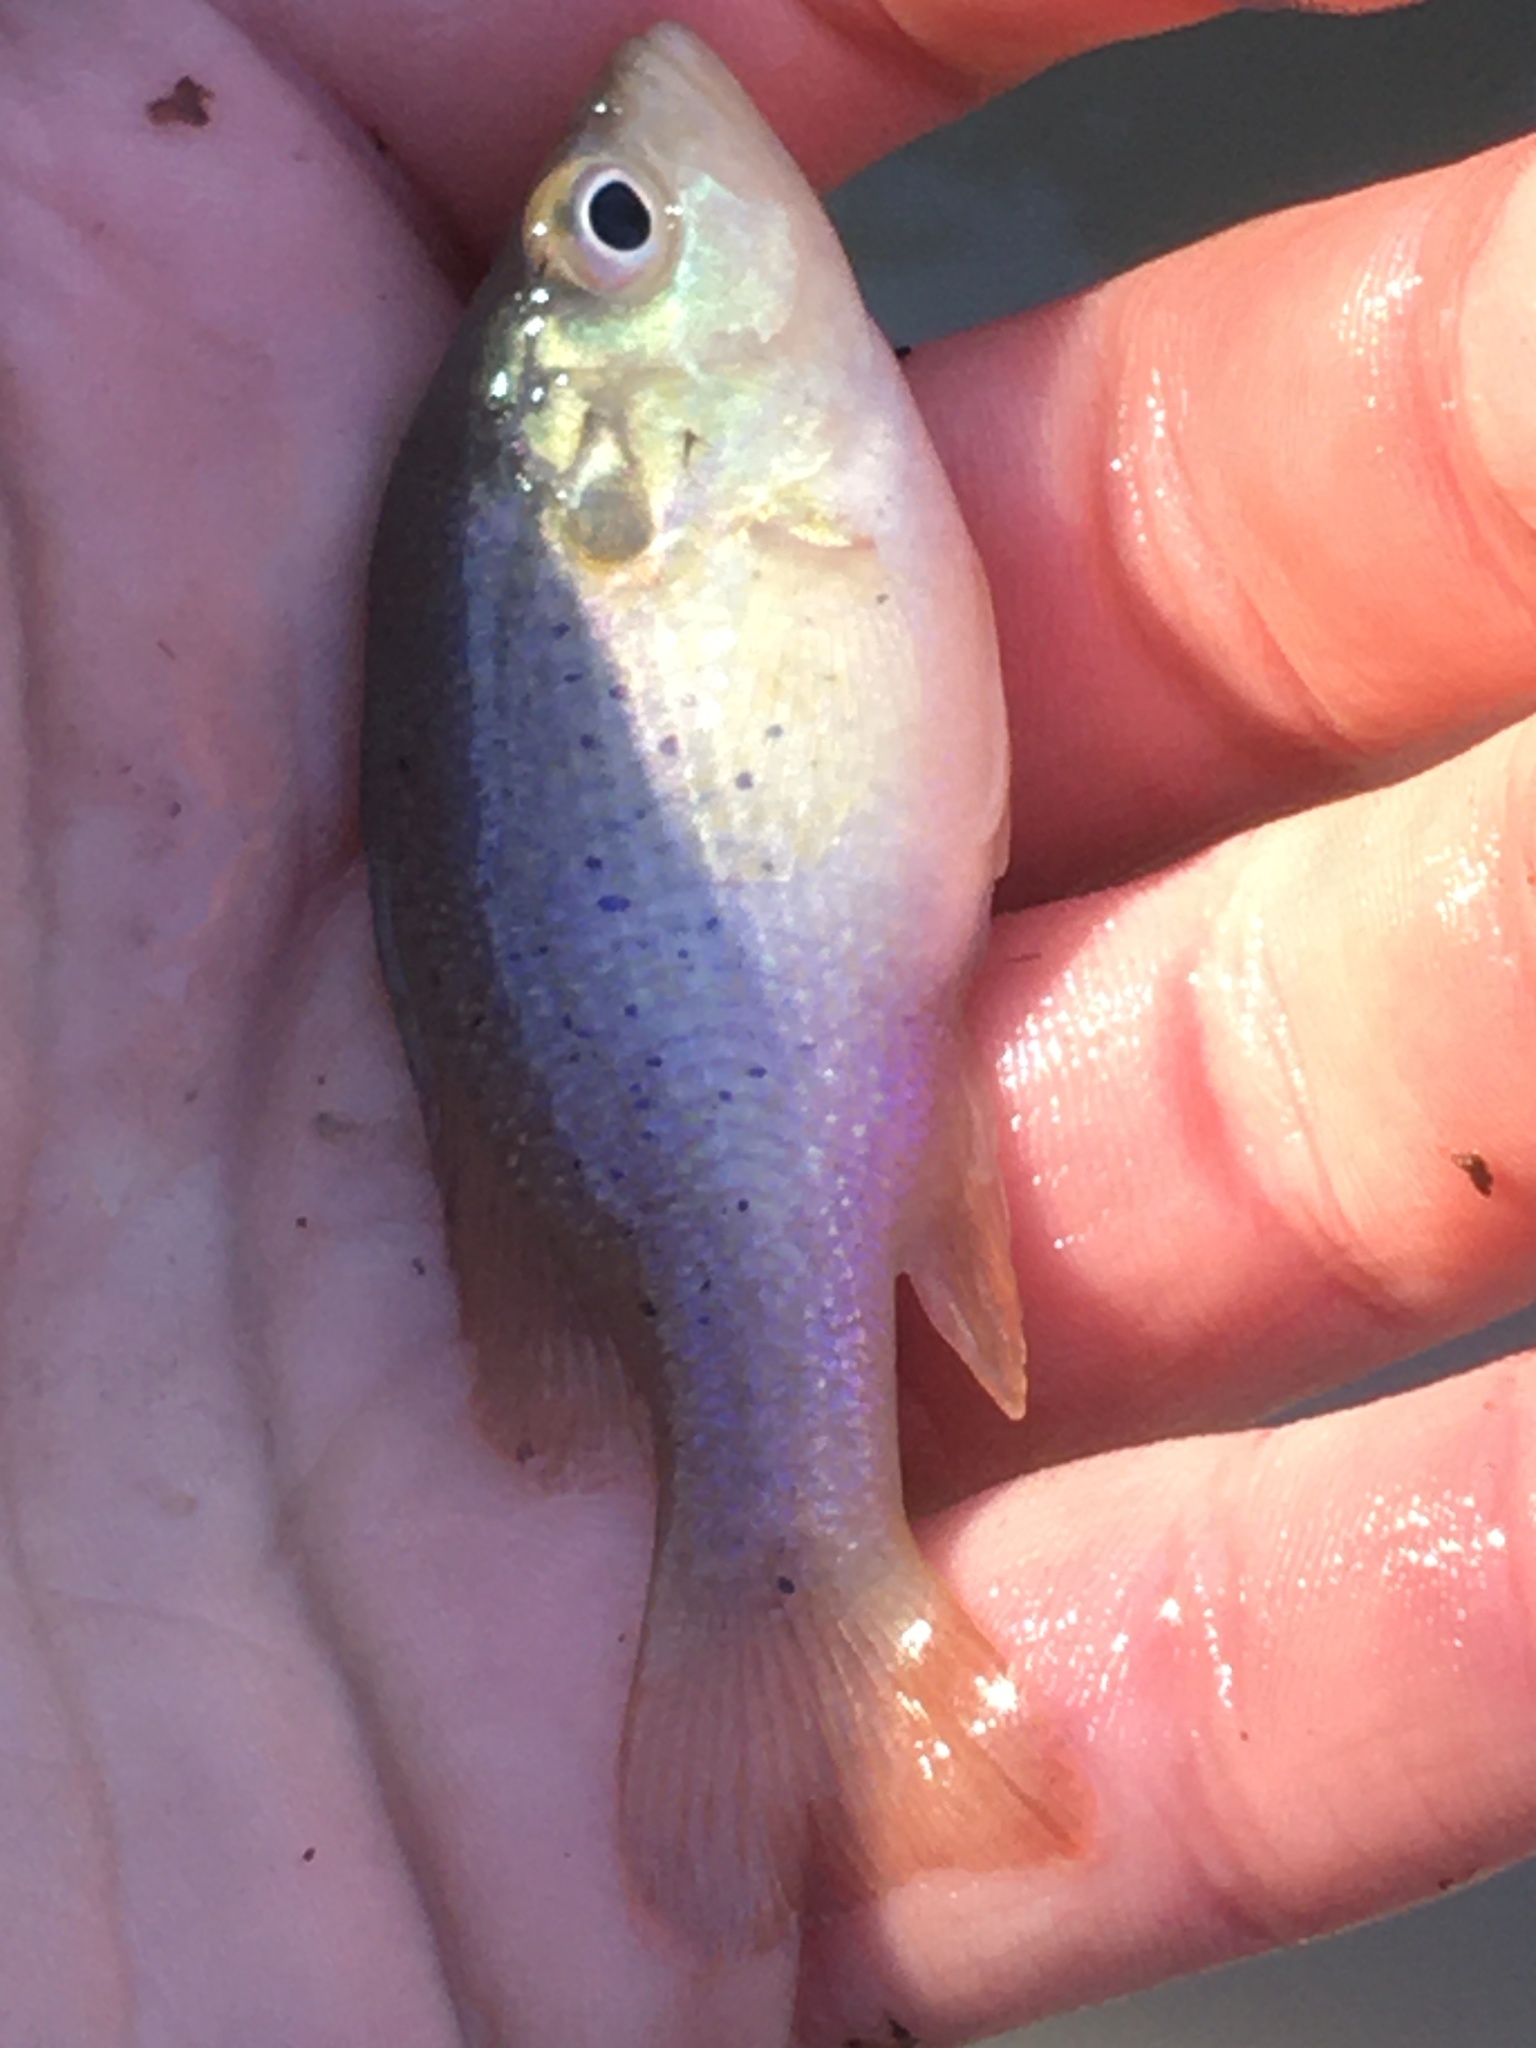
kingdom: Animalia
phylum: Chordata
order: Perciformes
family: Centrarchidae
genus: Lepomis
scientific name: Lepomis cyanellus
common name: Green sunfish
